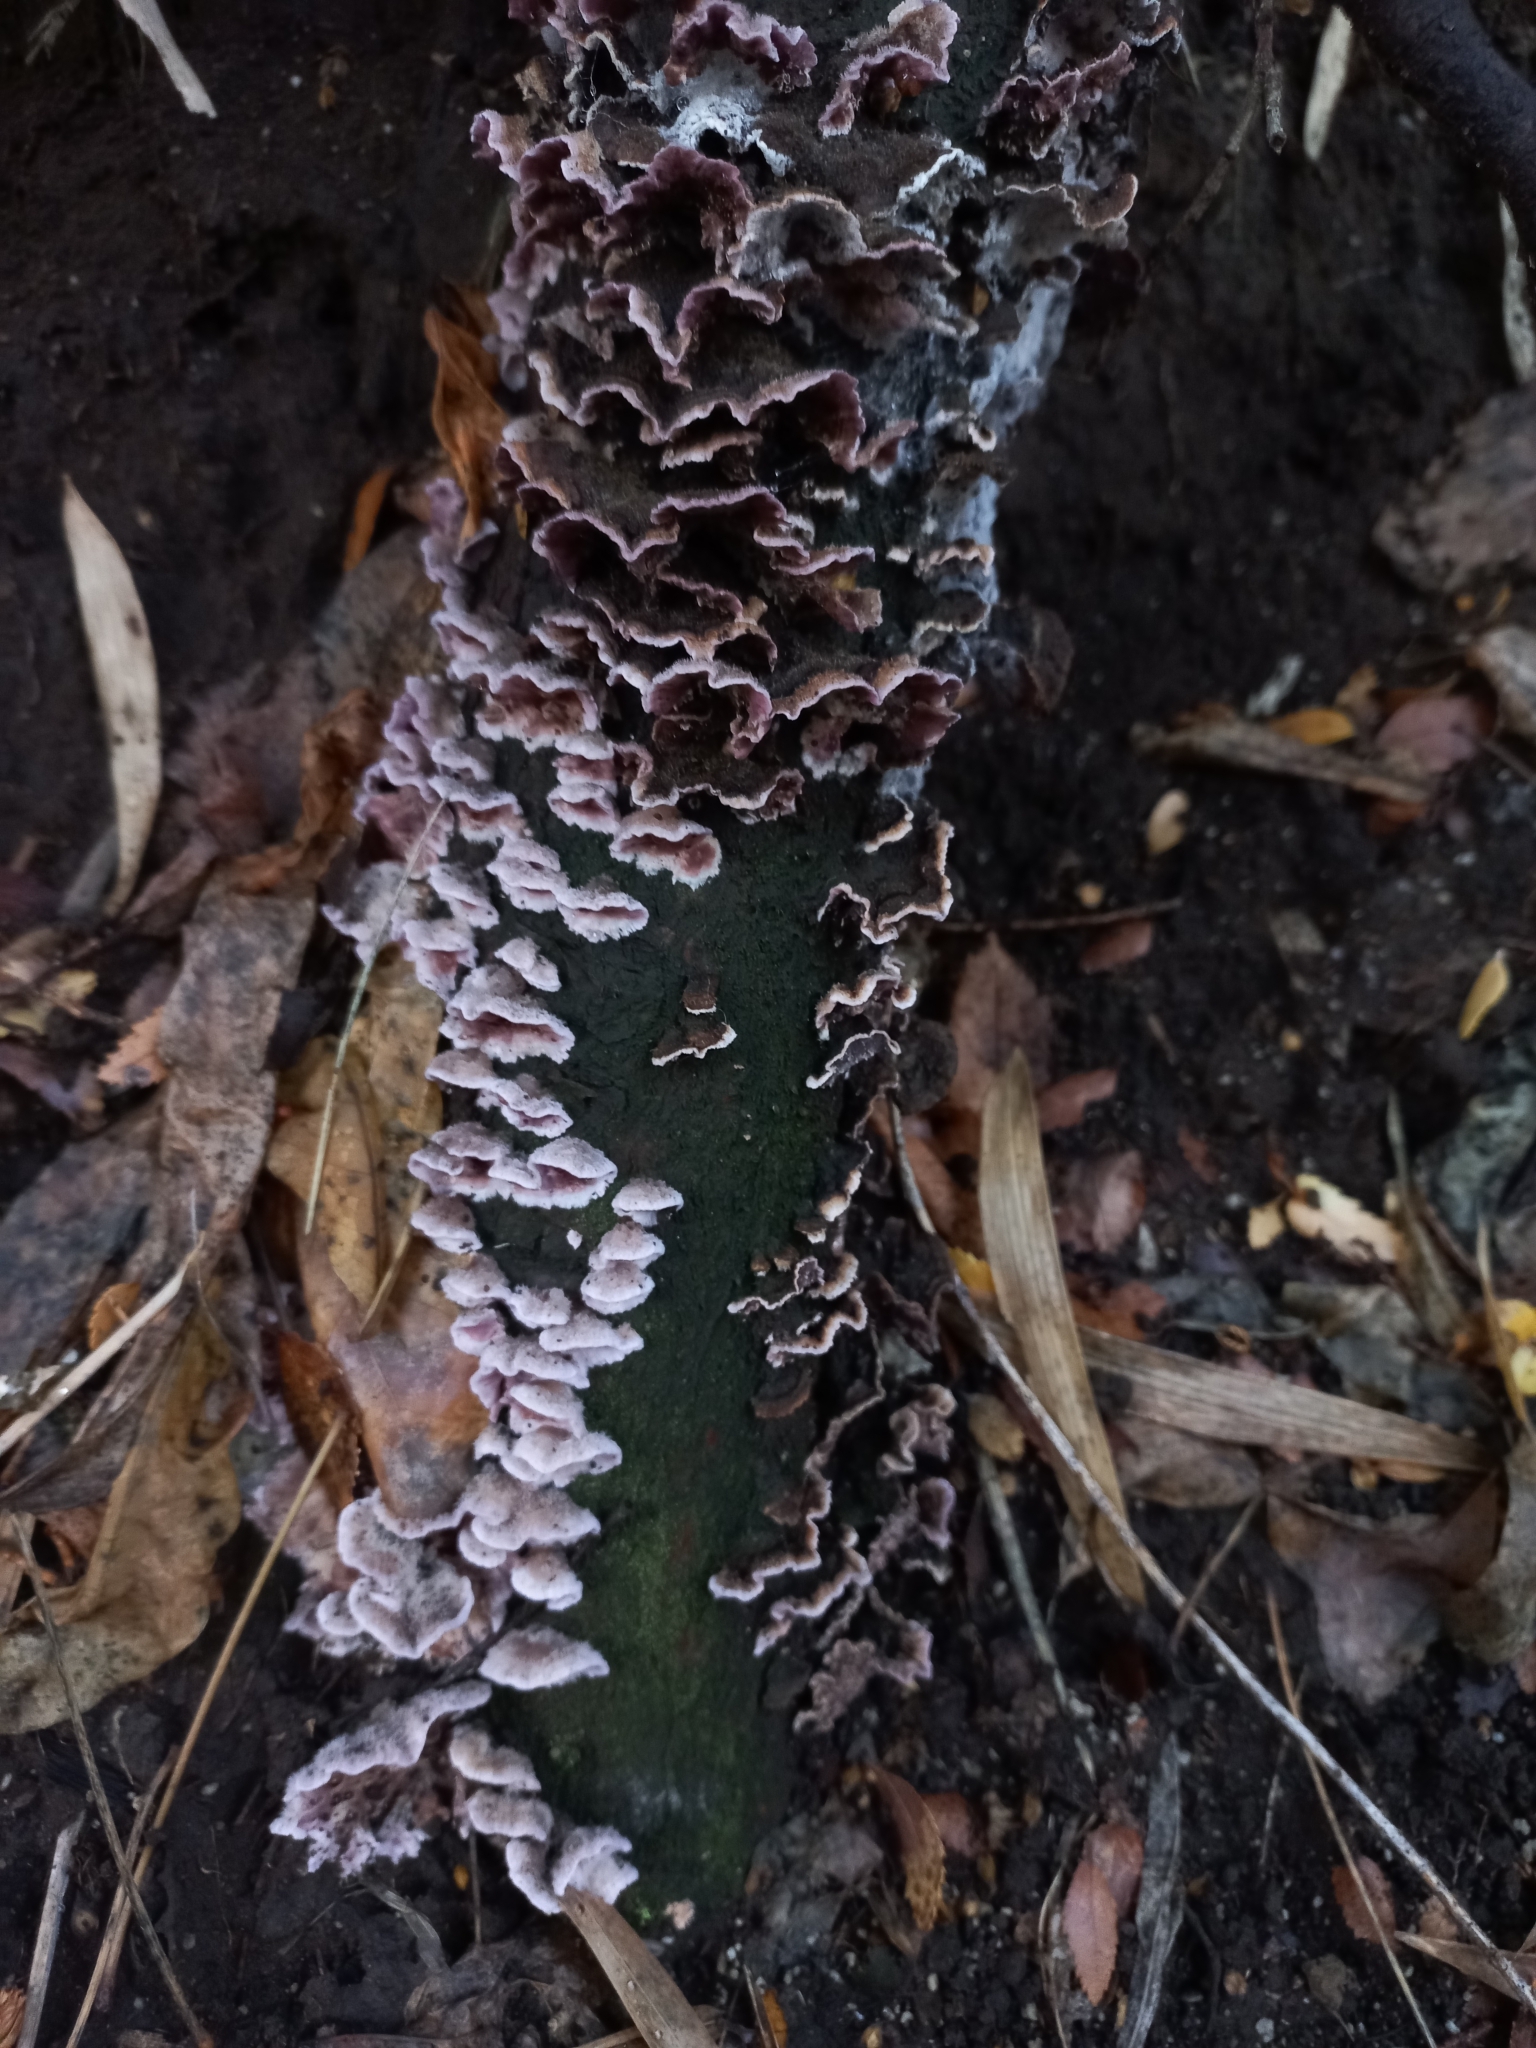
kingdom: Fungi
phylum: Basidiomycota
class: Agaricomycetes
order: Agaricales
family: Cyphellaceae
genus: Chondrostereum
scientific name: Chondrostereum purpureum
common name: Silver leaf disease
